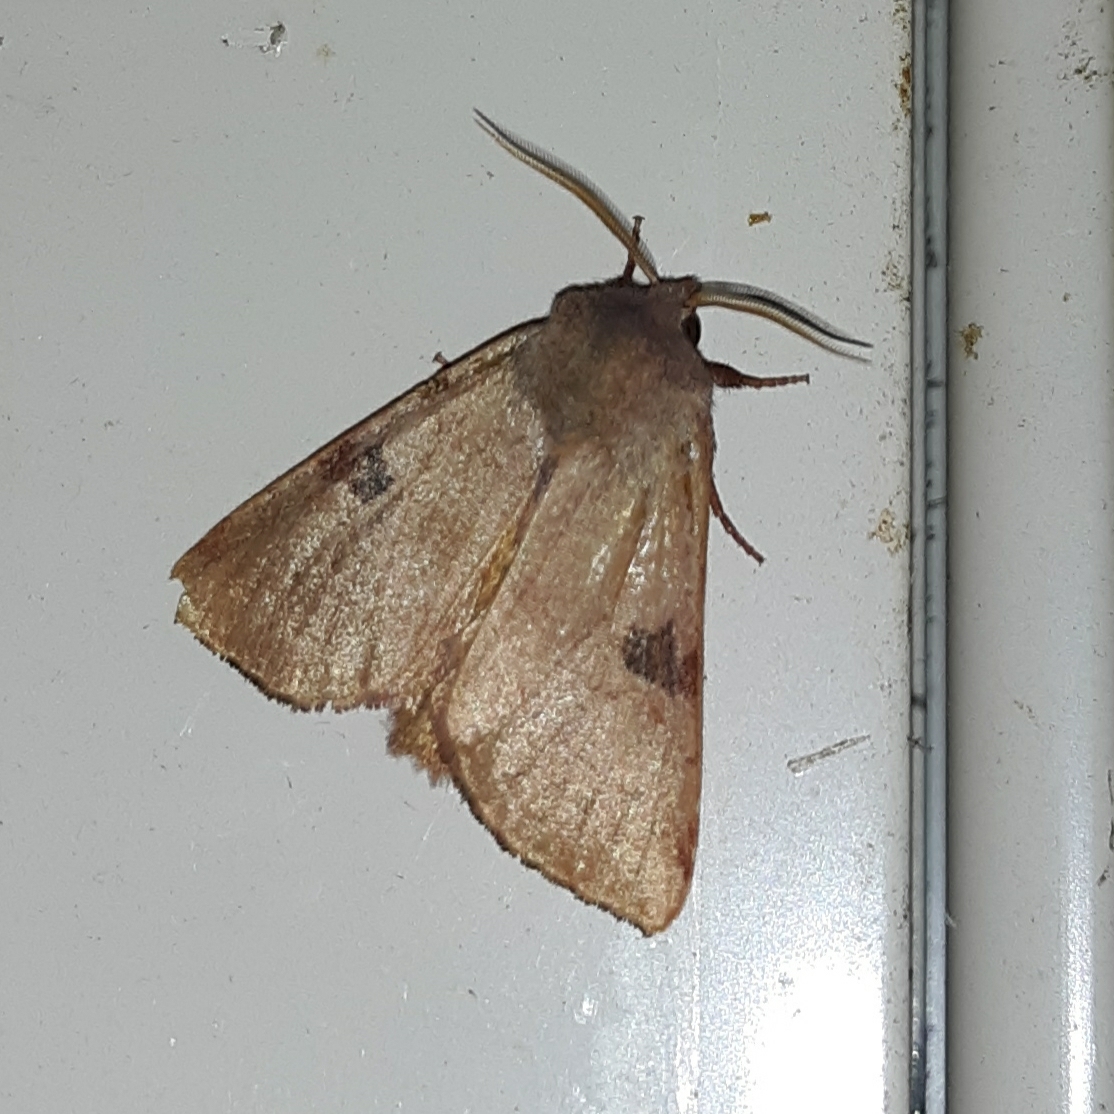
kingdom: Animalia
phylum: Arthropoda
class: Insecta
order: Lepidoptera
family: Noctuidae
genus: Choephora
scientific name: Choephora fungorum
